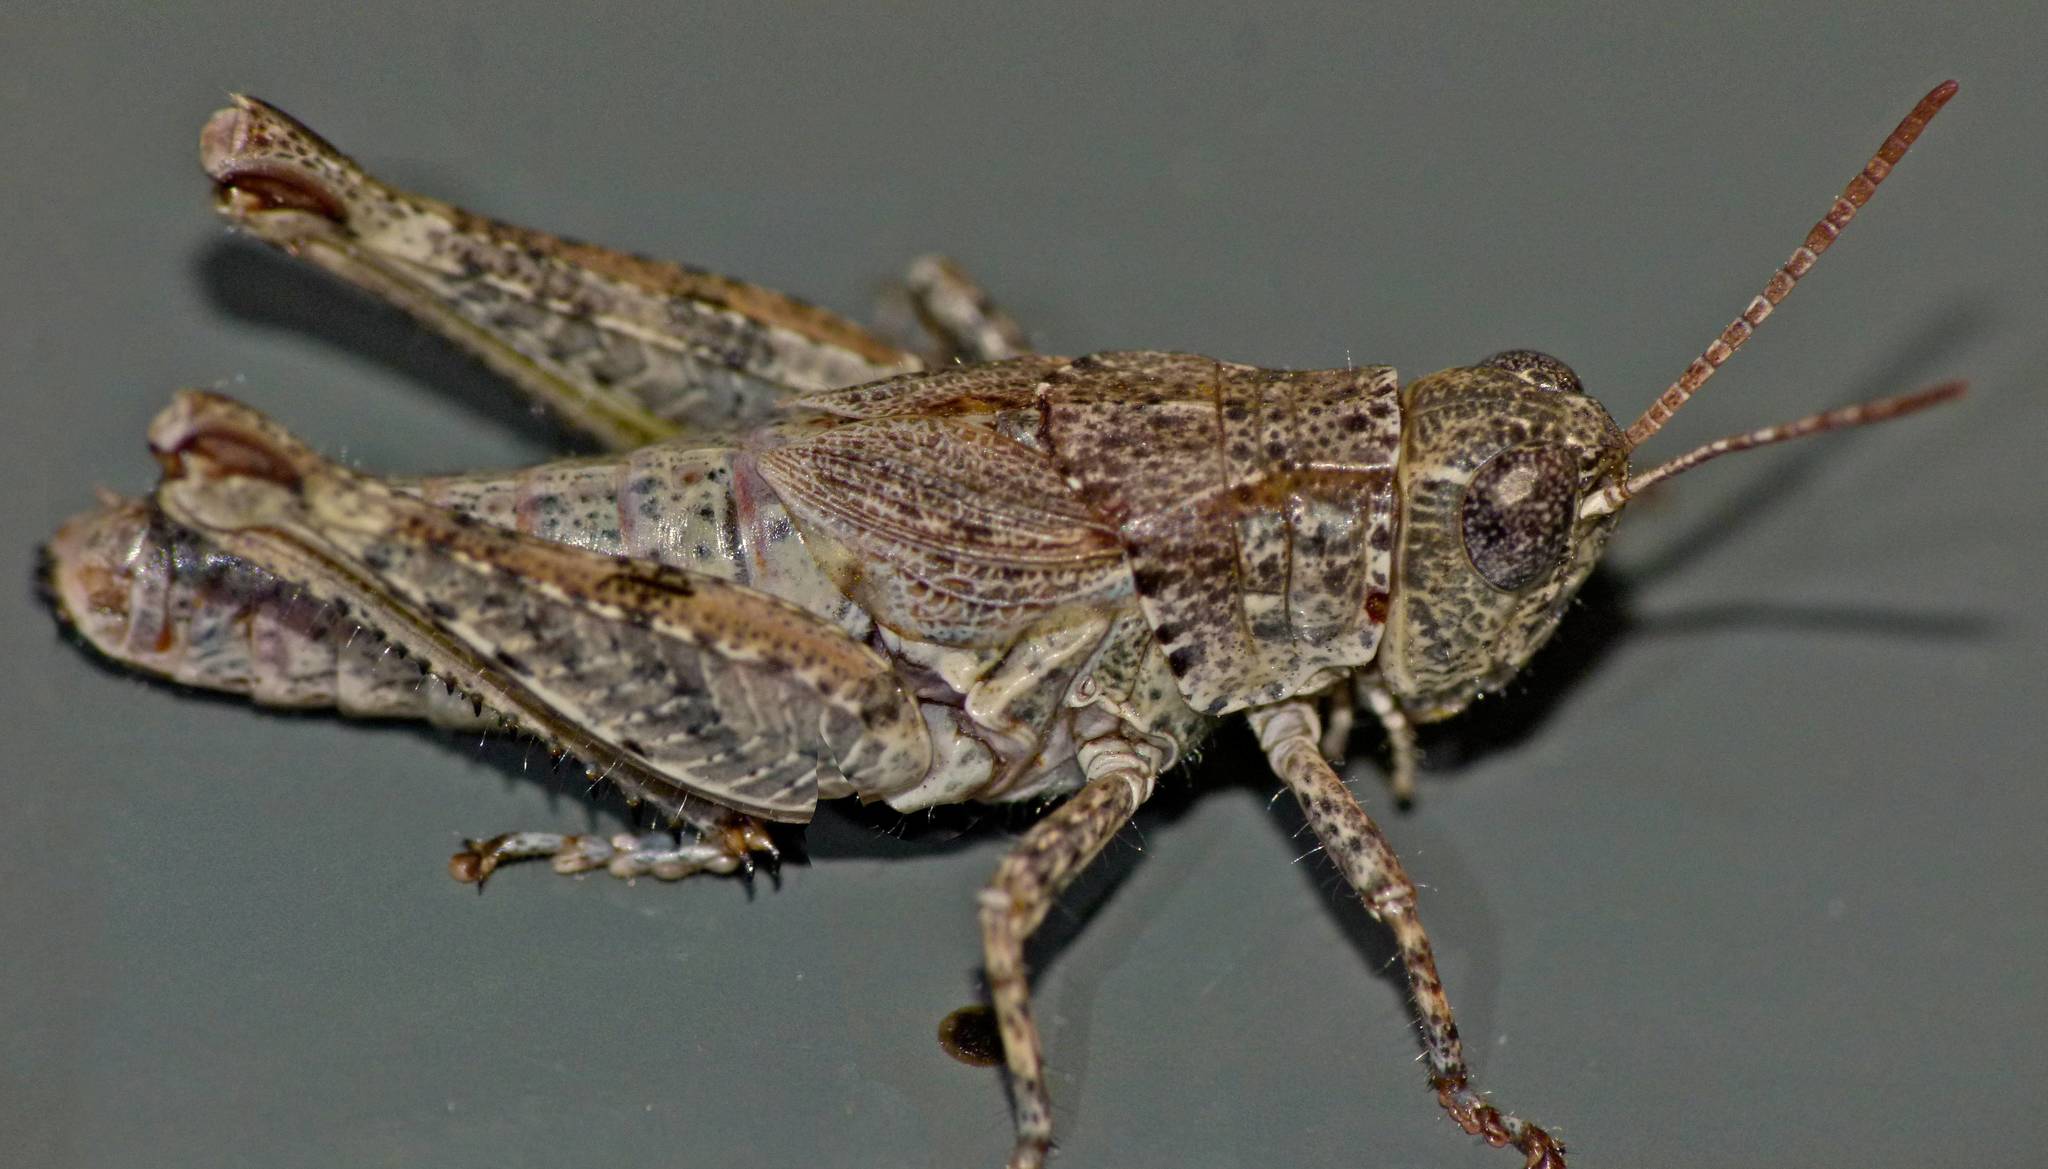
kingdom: Animalia
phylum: Arthropoda
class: Insecta
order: Orthoptera
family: Acrididae
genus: Phaulacridium
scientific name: Phaulacridium marginale
